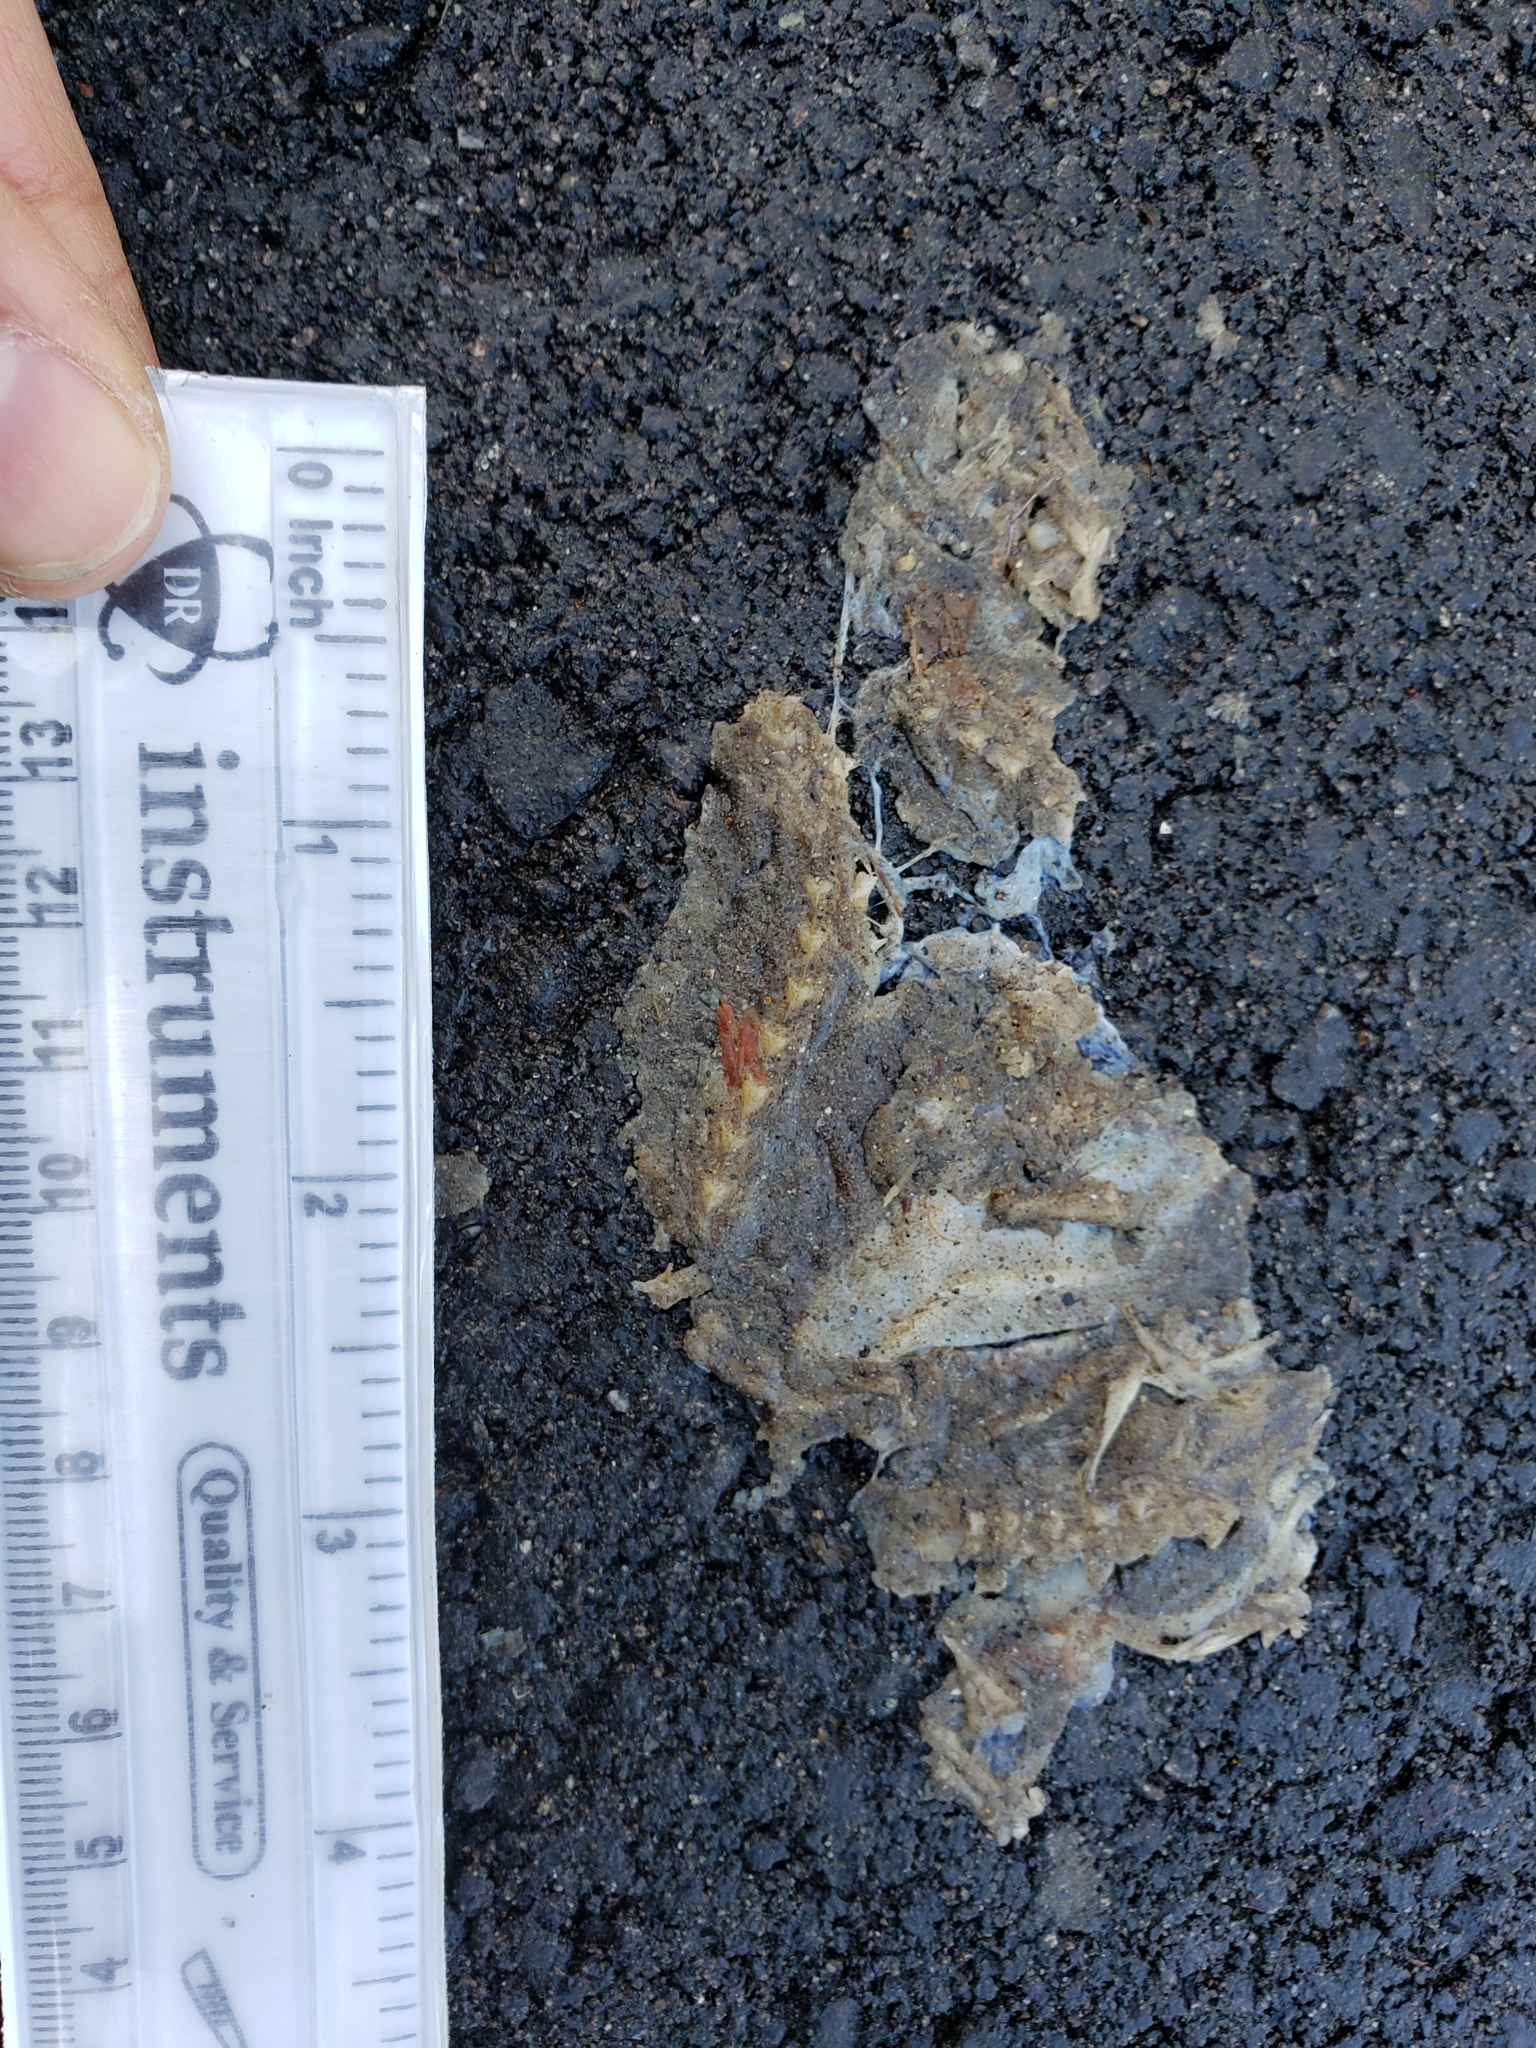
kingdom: Animalia
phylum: Chordata
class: Amphibia
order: Caudata
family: Salamandridae
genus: Taricha
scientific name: Taricha
